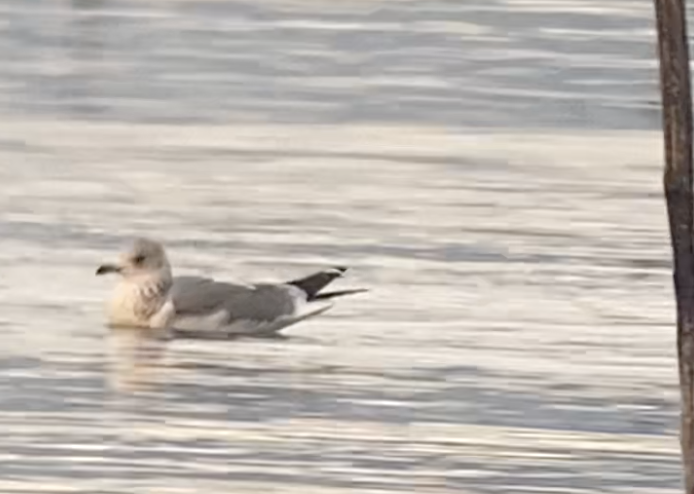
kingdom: Animalia
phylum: Chordata
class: Aves
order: Charadriiformes
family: Laridae
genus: Larus
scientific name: Larus canus
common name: Mew gull
